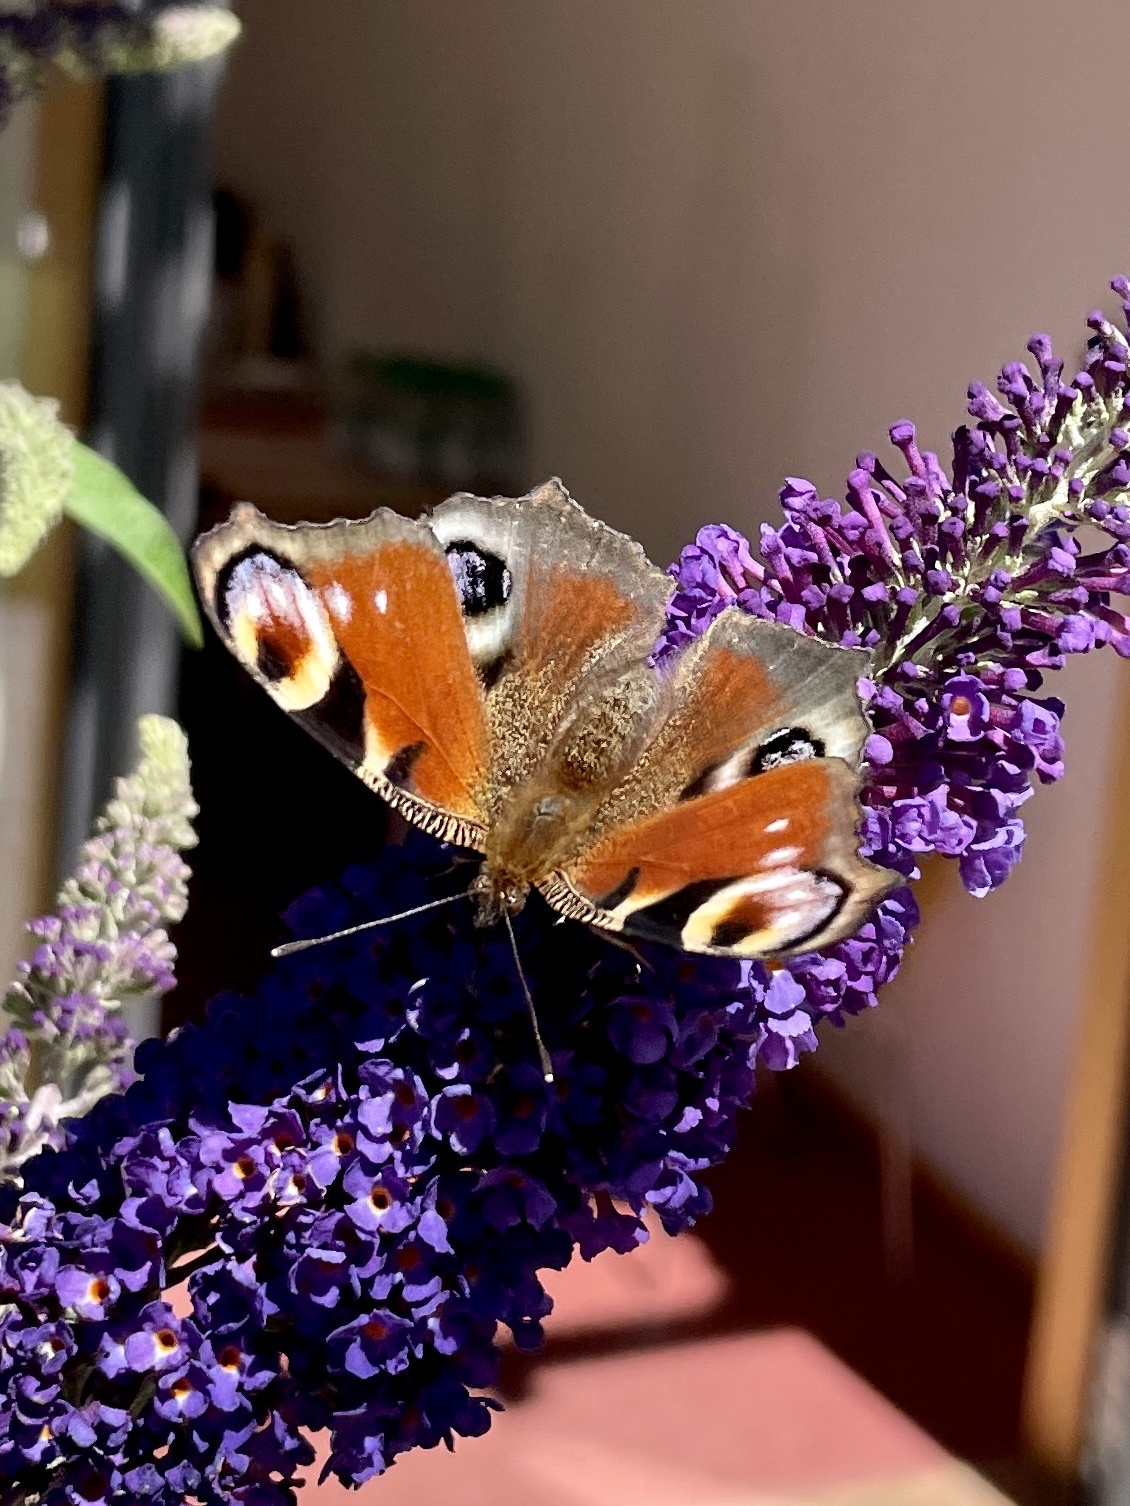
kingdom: Animalia
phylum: Arthropoda
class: Insecta
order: Lepidoptera
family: Nymphalidae
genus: Aglais
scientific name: Aglais io
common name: Peacock
